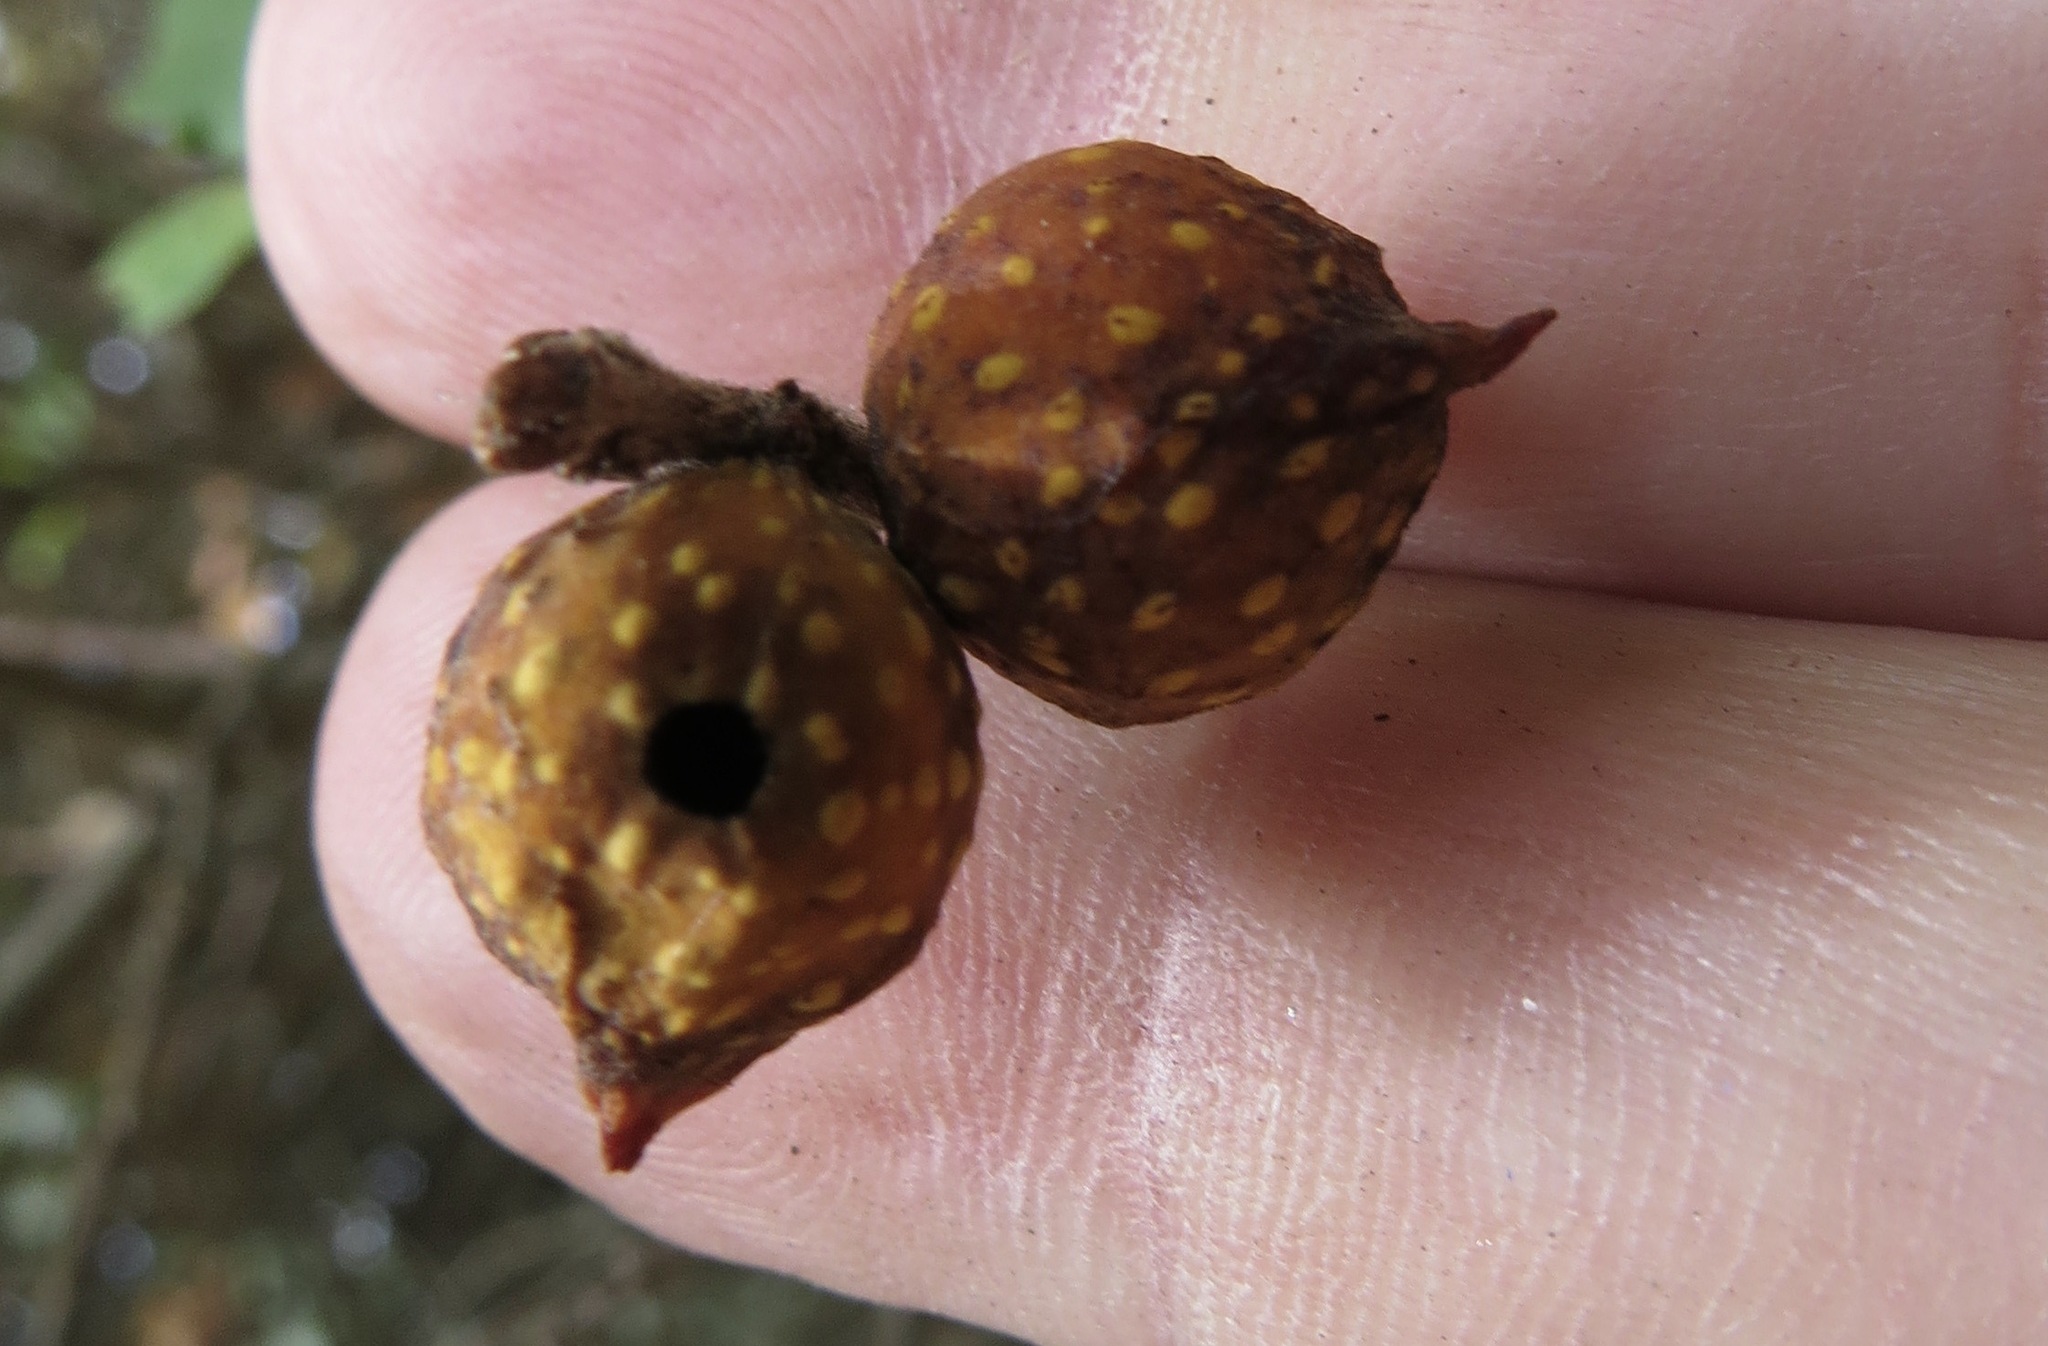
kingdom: Animalia
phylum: Arthropoda
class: Insecta
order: Hymenoptera
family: Cynipidae
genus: Burnettweldia
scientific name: Burnettweldia
